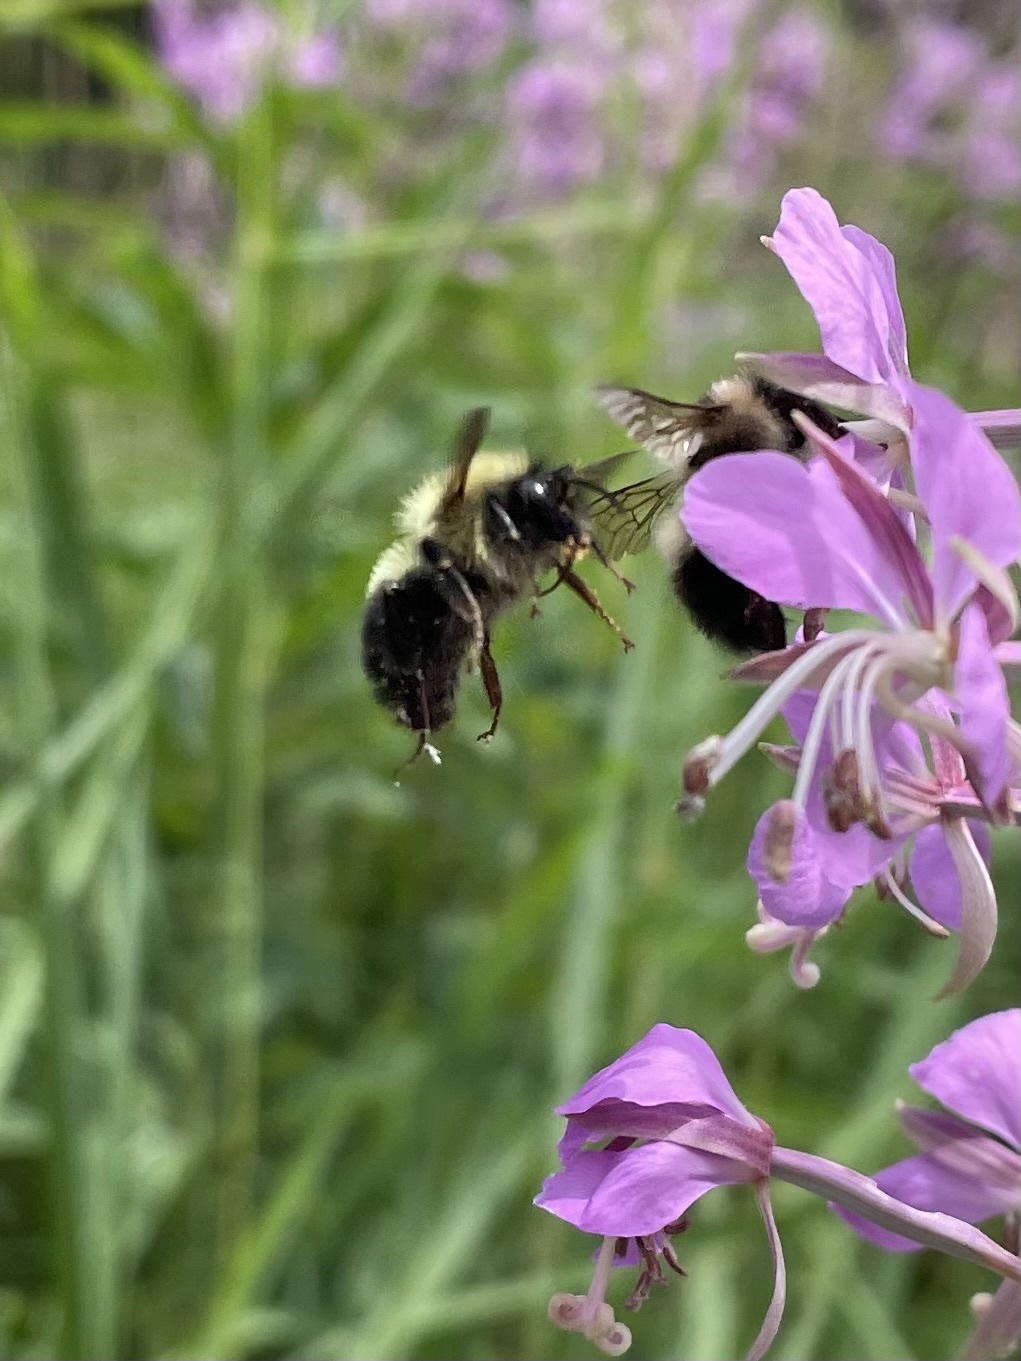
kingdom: Animalia
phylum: Arthropoda
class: Insecta
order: Hymenoptera
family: Apidae
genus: Bombus
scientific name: Bombus bimaculatus
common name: Two-spotted bumble bee
